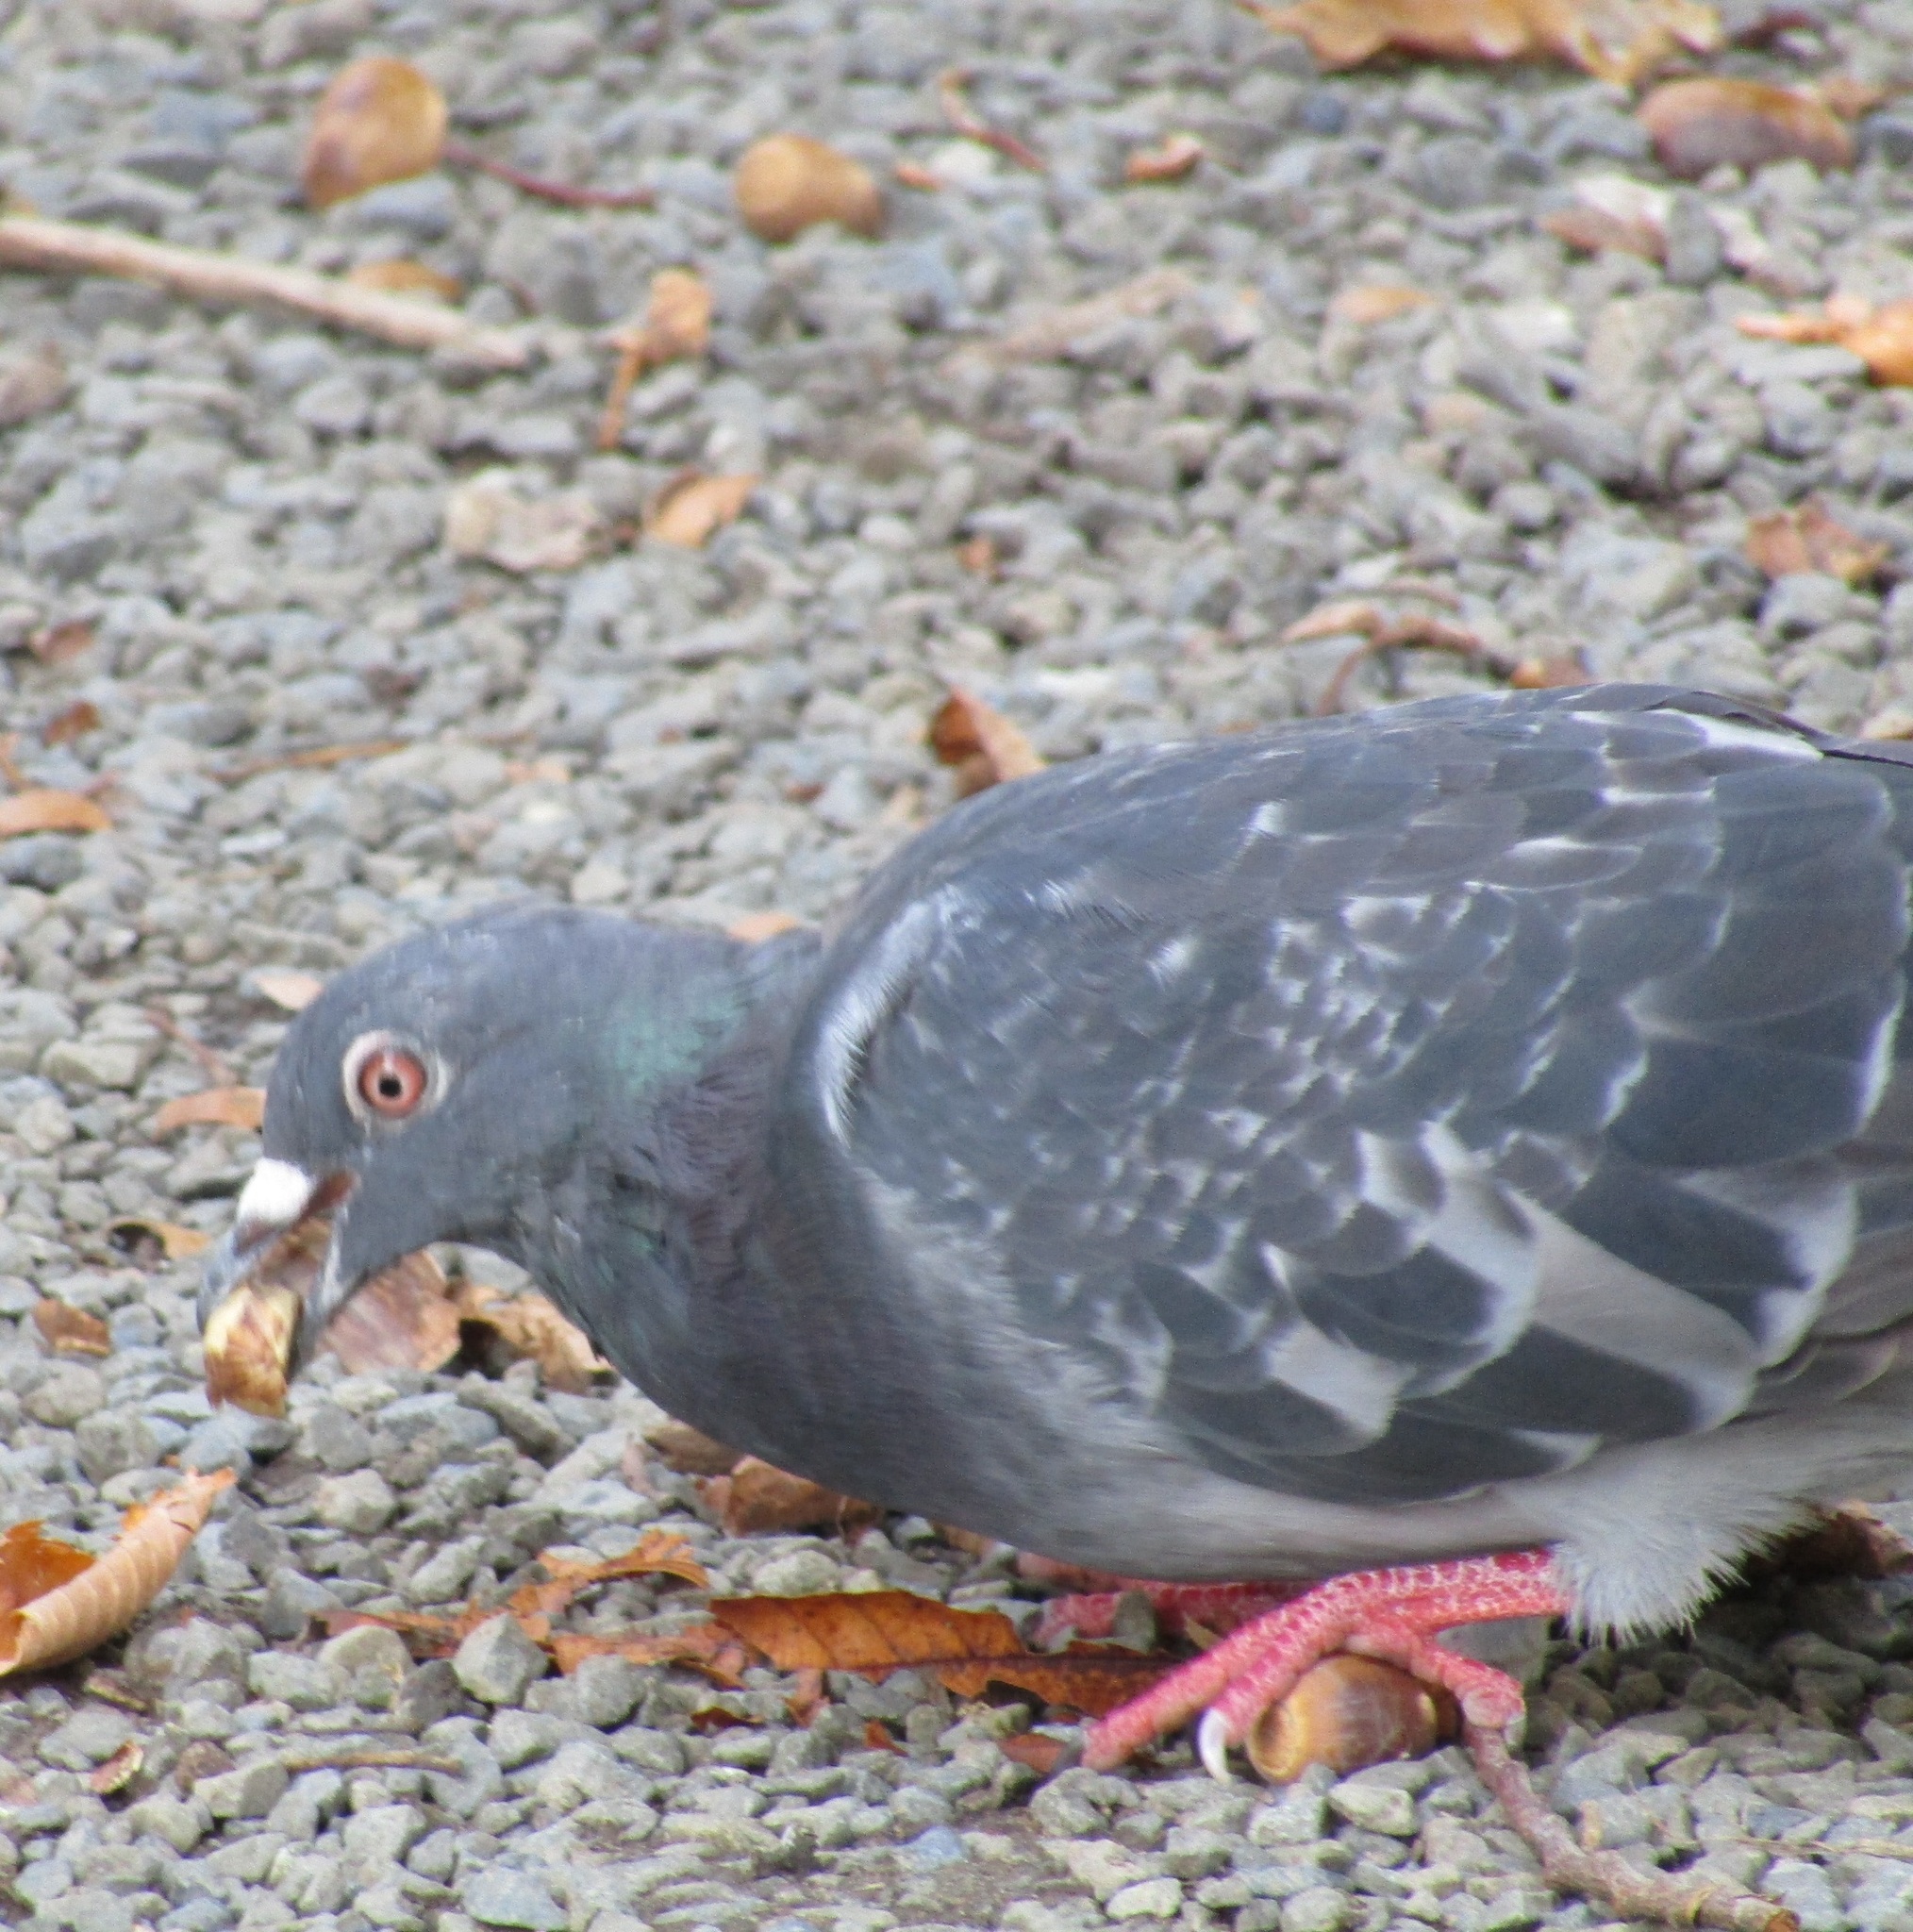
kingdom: Animalia
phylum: Chordata
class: Aves
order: Columbiformes
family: Columbidae
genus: Columba
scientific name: Columba livia
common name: Rock pigeon
